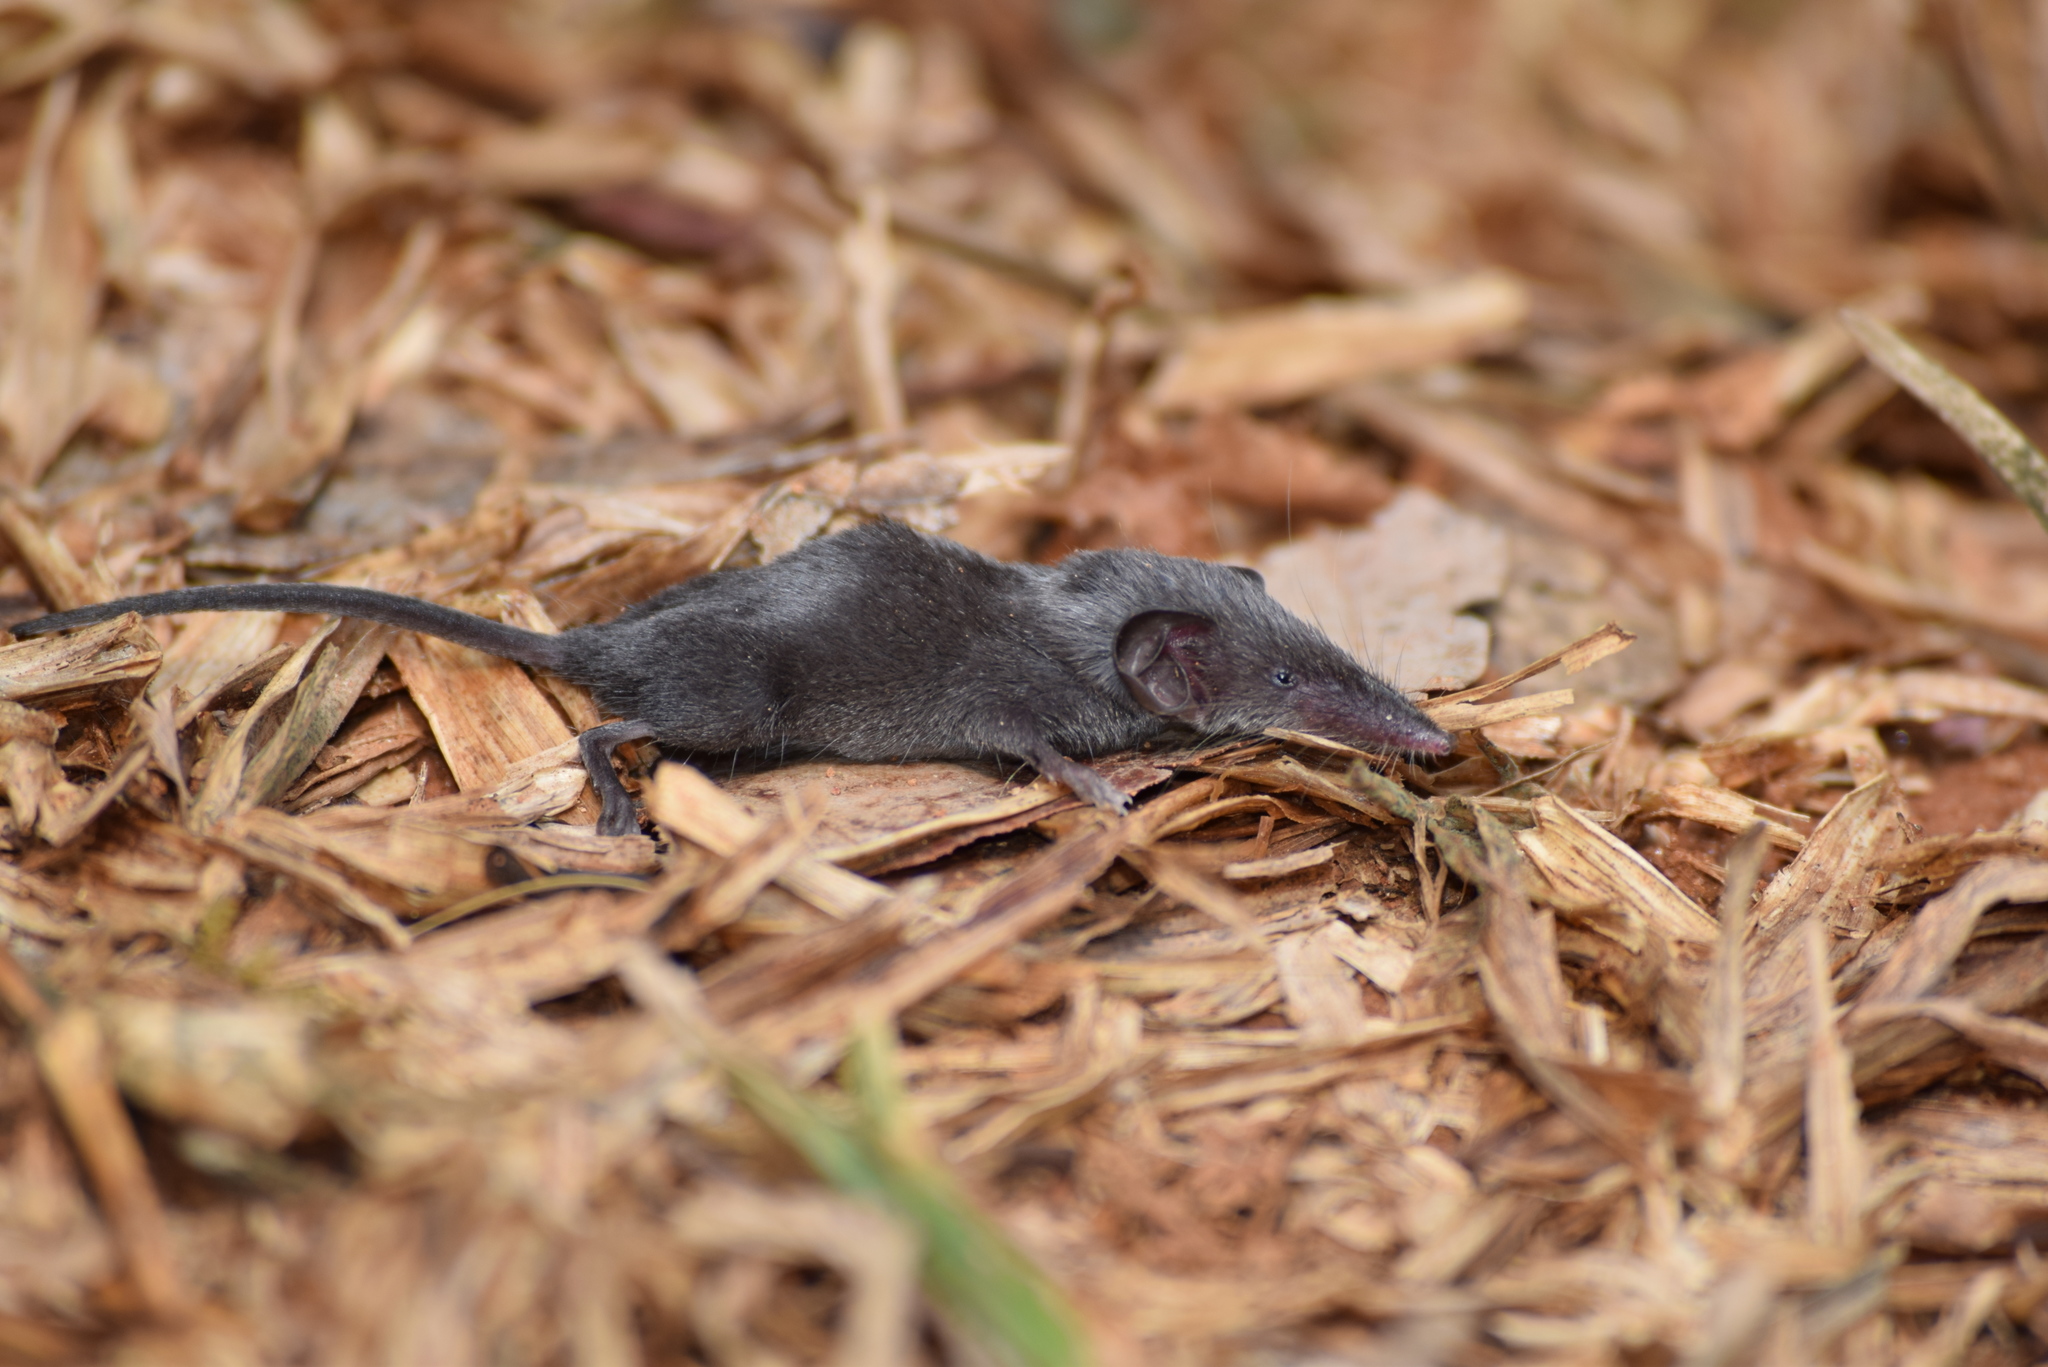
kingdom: Animalia
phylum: Chordata
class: Mammalia
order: Soricomorpha
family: Soricidae
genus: Suncus
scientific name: Suncus etruscus
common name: Etruscan shrew
